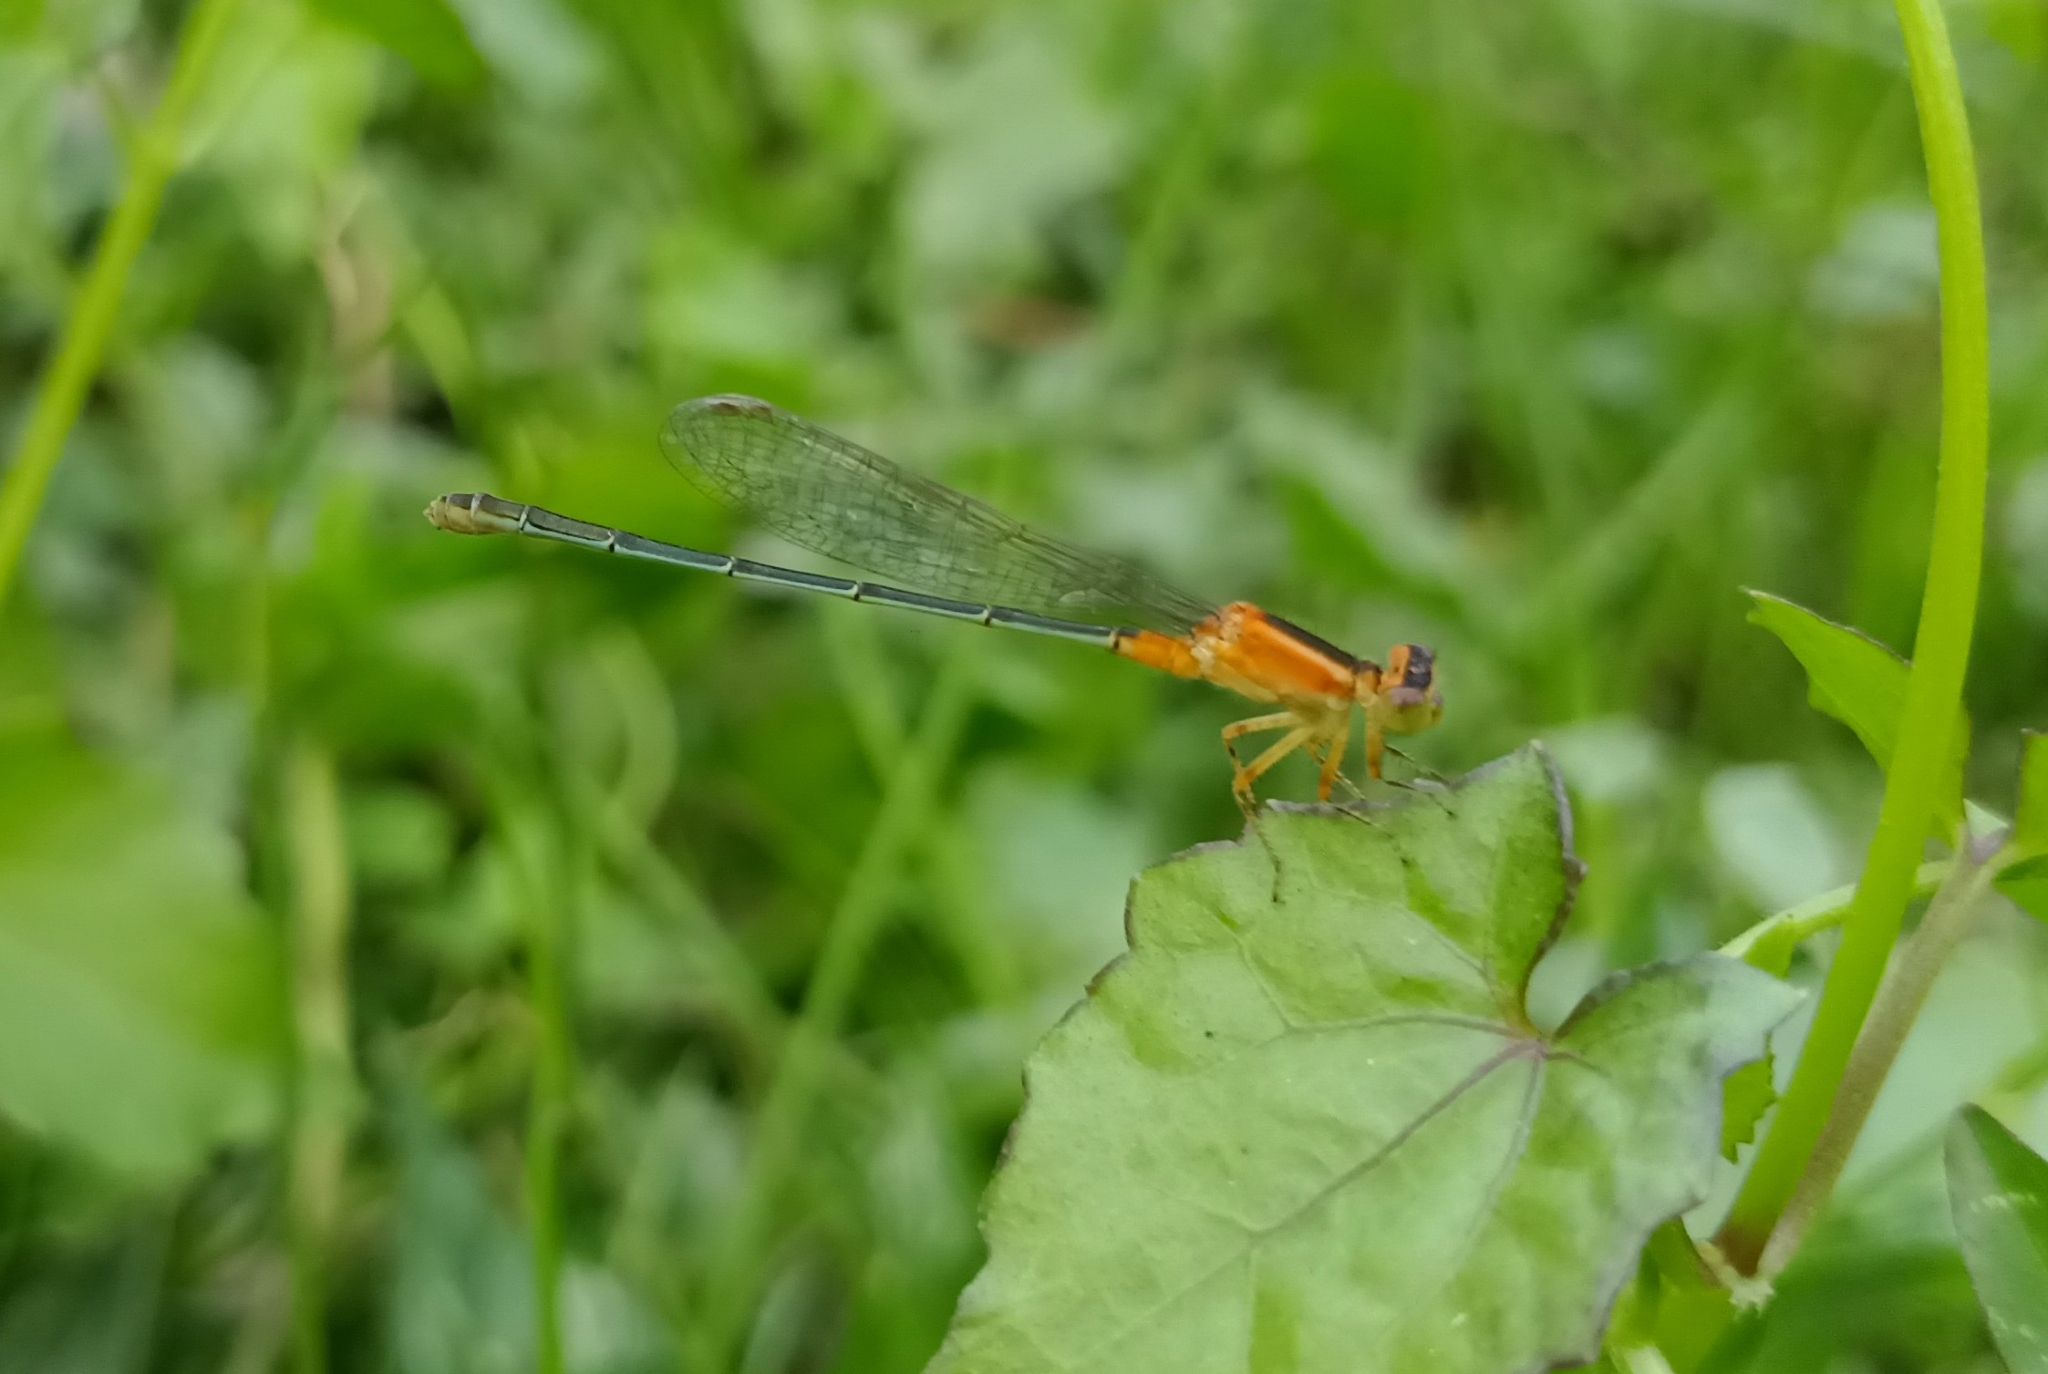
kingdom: Animalia
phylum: Arthropoda
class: Insecta
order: Odonata
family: Coenagrionidae
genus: Ischnura
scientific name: Ischnura senegalensis
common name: Tropical bluetail
